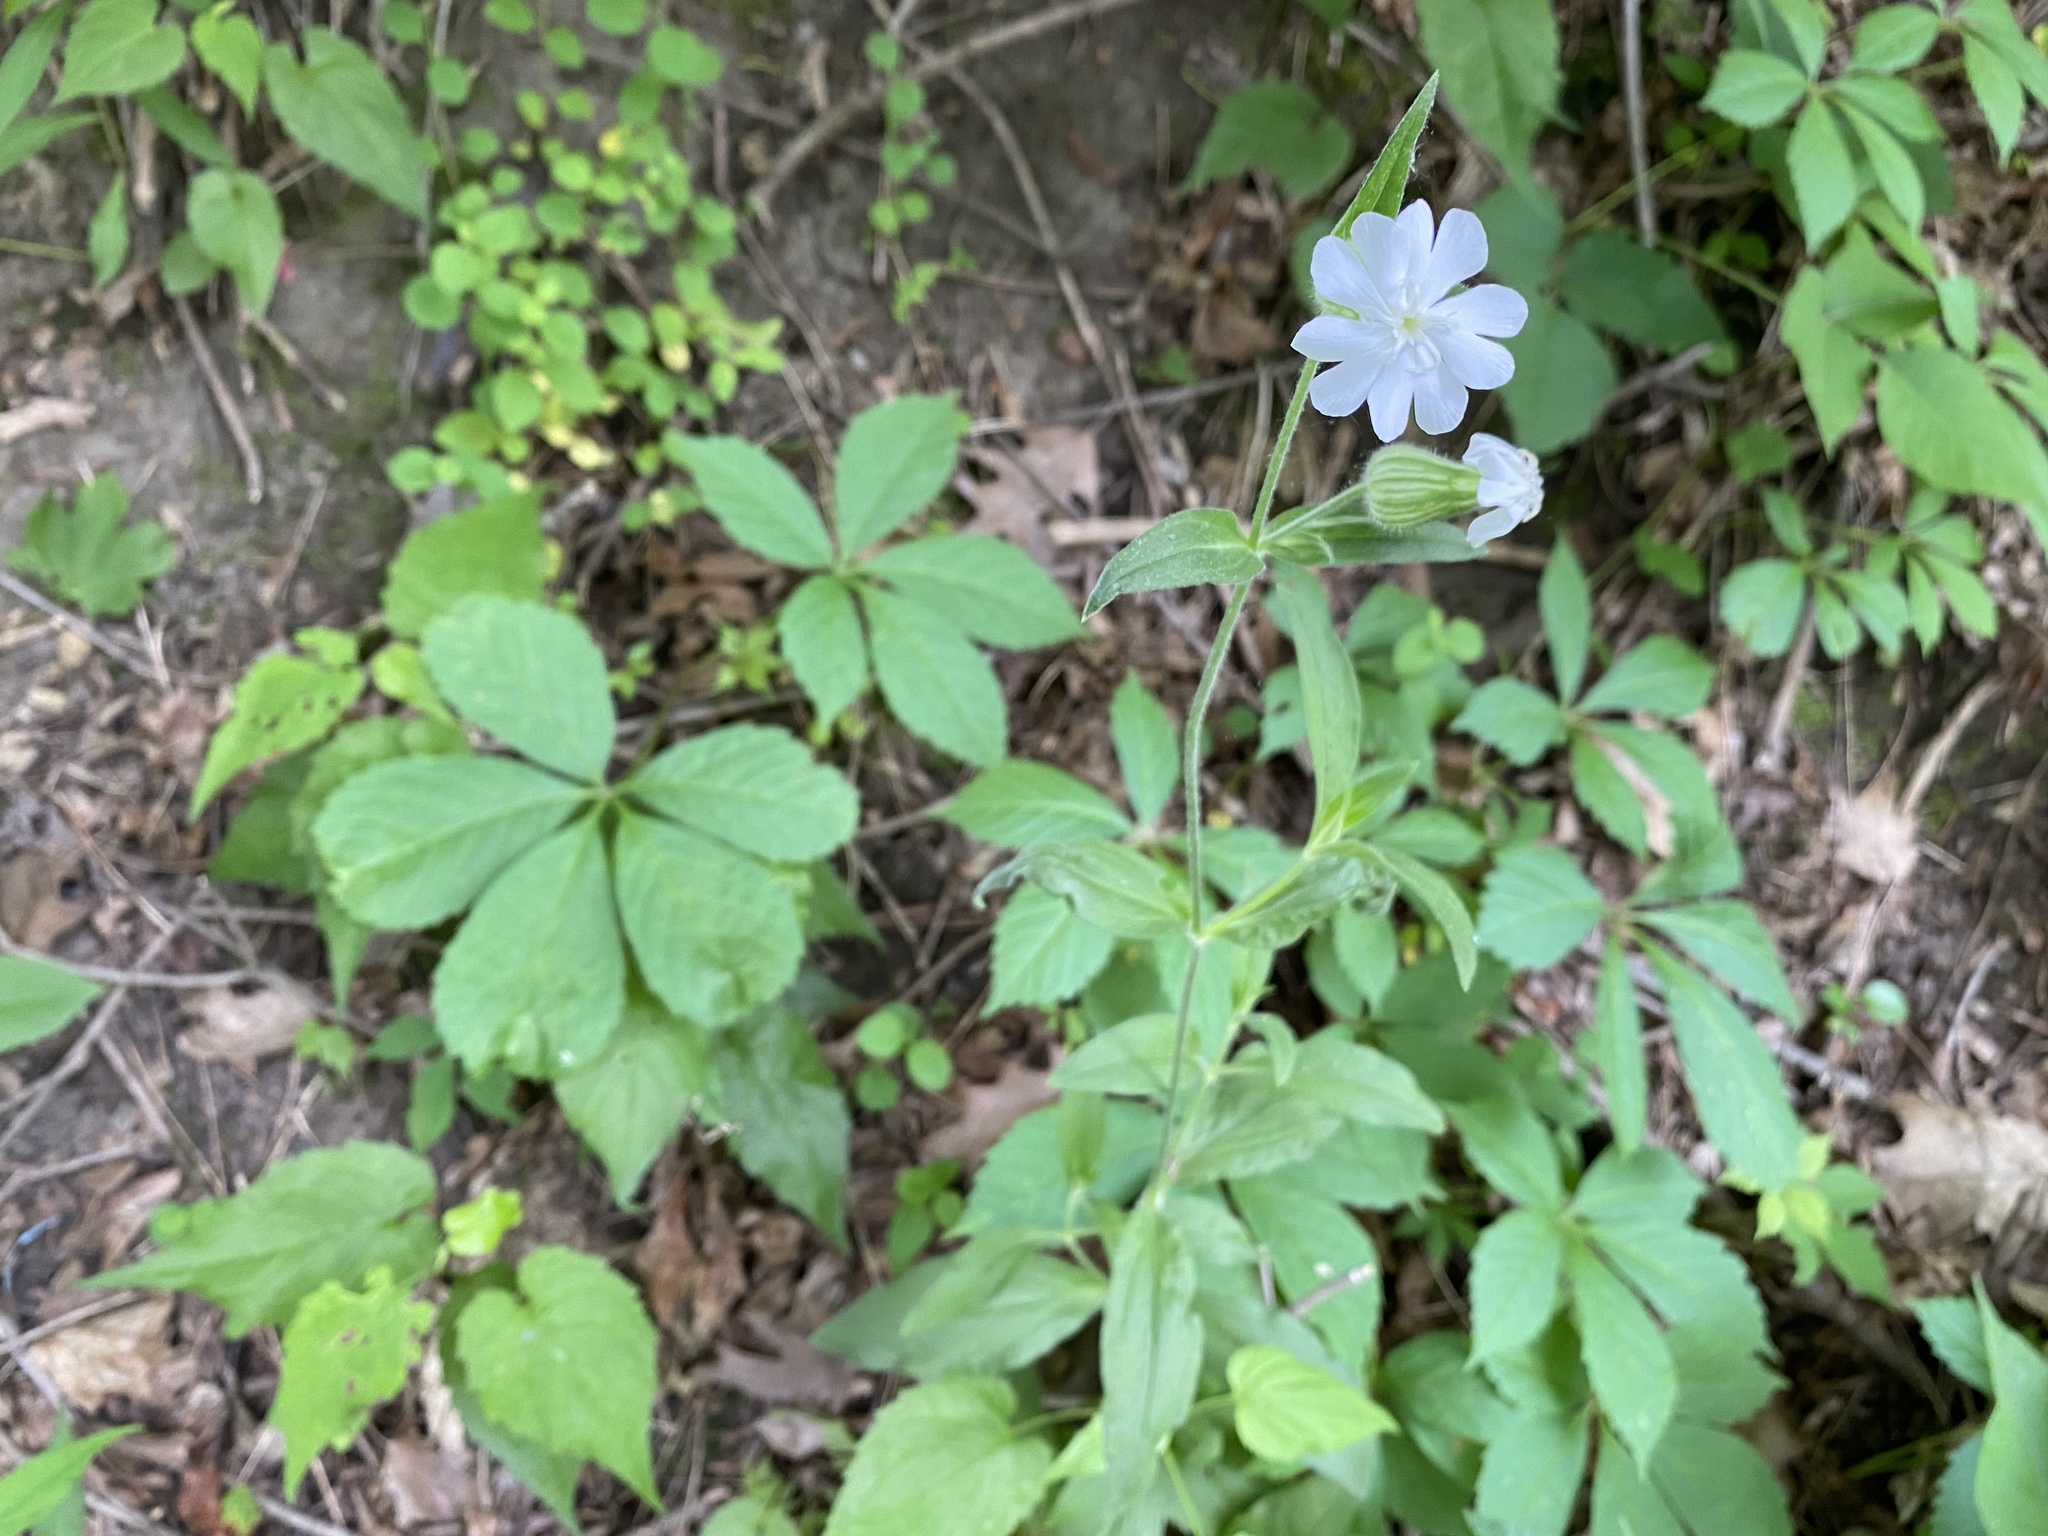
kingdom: Plantae
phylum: Tracheophyta
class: Magnoliopsida
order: Caryophyllales
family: Caryophyllaceae
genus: Silene
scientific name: Silene latifolia
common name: White campion
